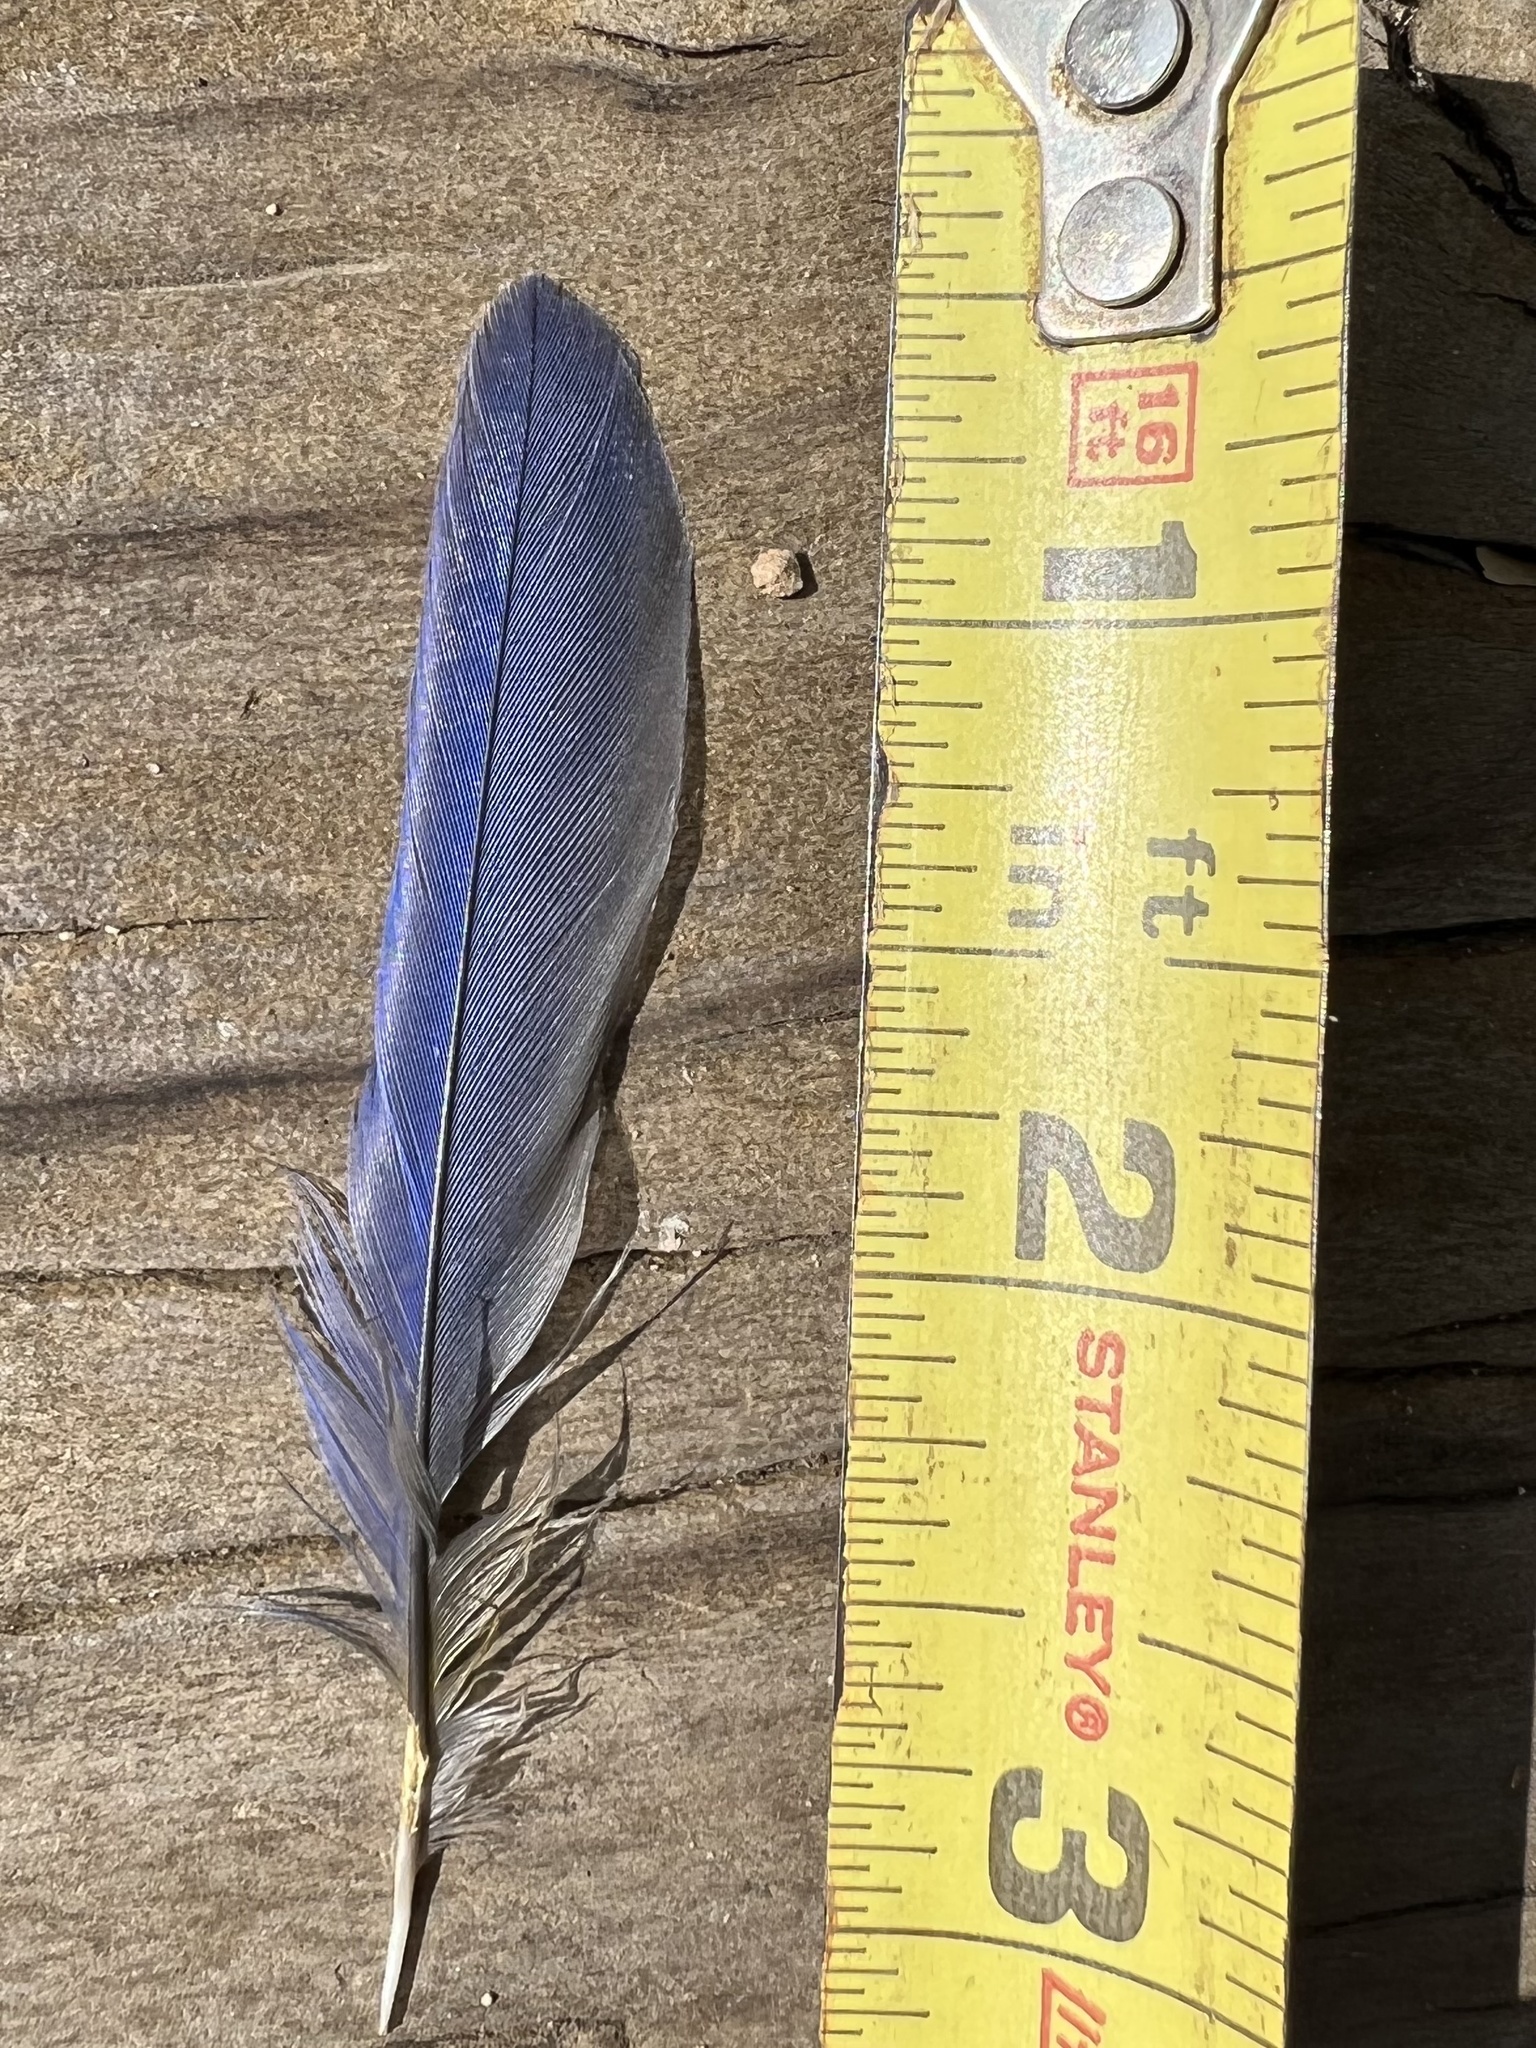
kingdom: Animalia
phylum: Chordata
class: Aves
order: Passeriformes
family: Turdidae
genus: Sialia
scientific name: Sialia mexicana
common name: Western bluebird
